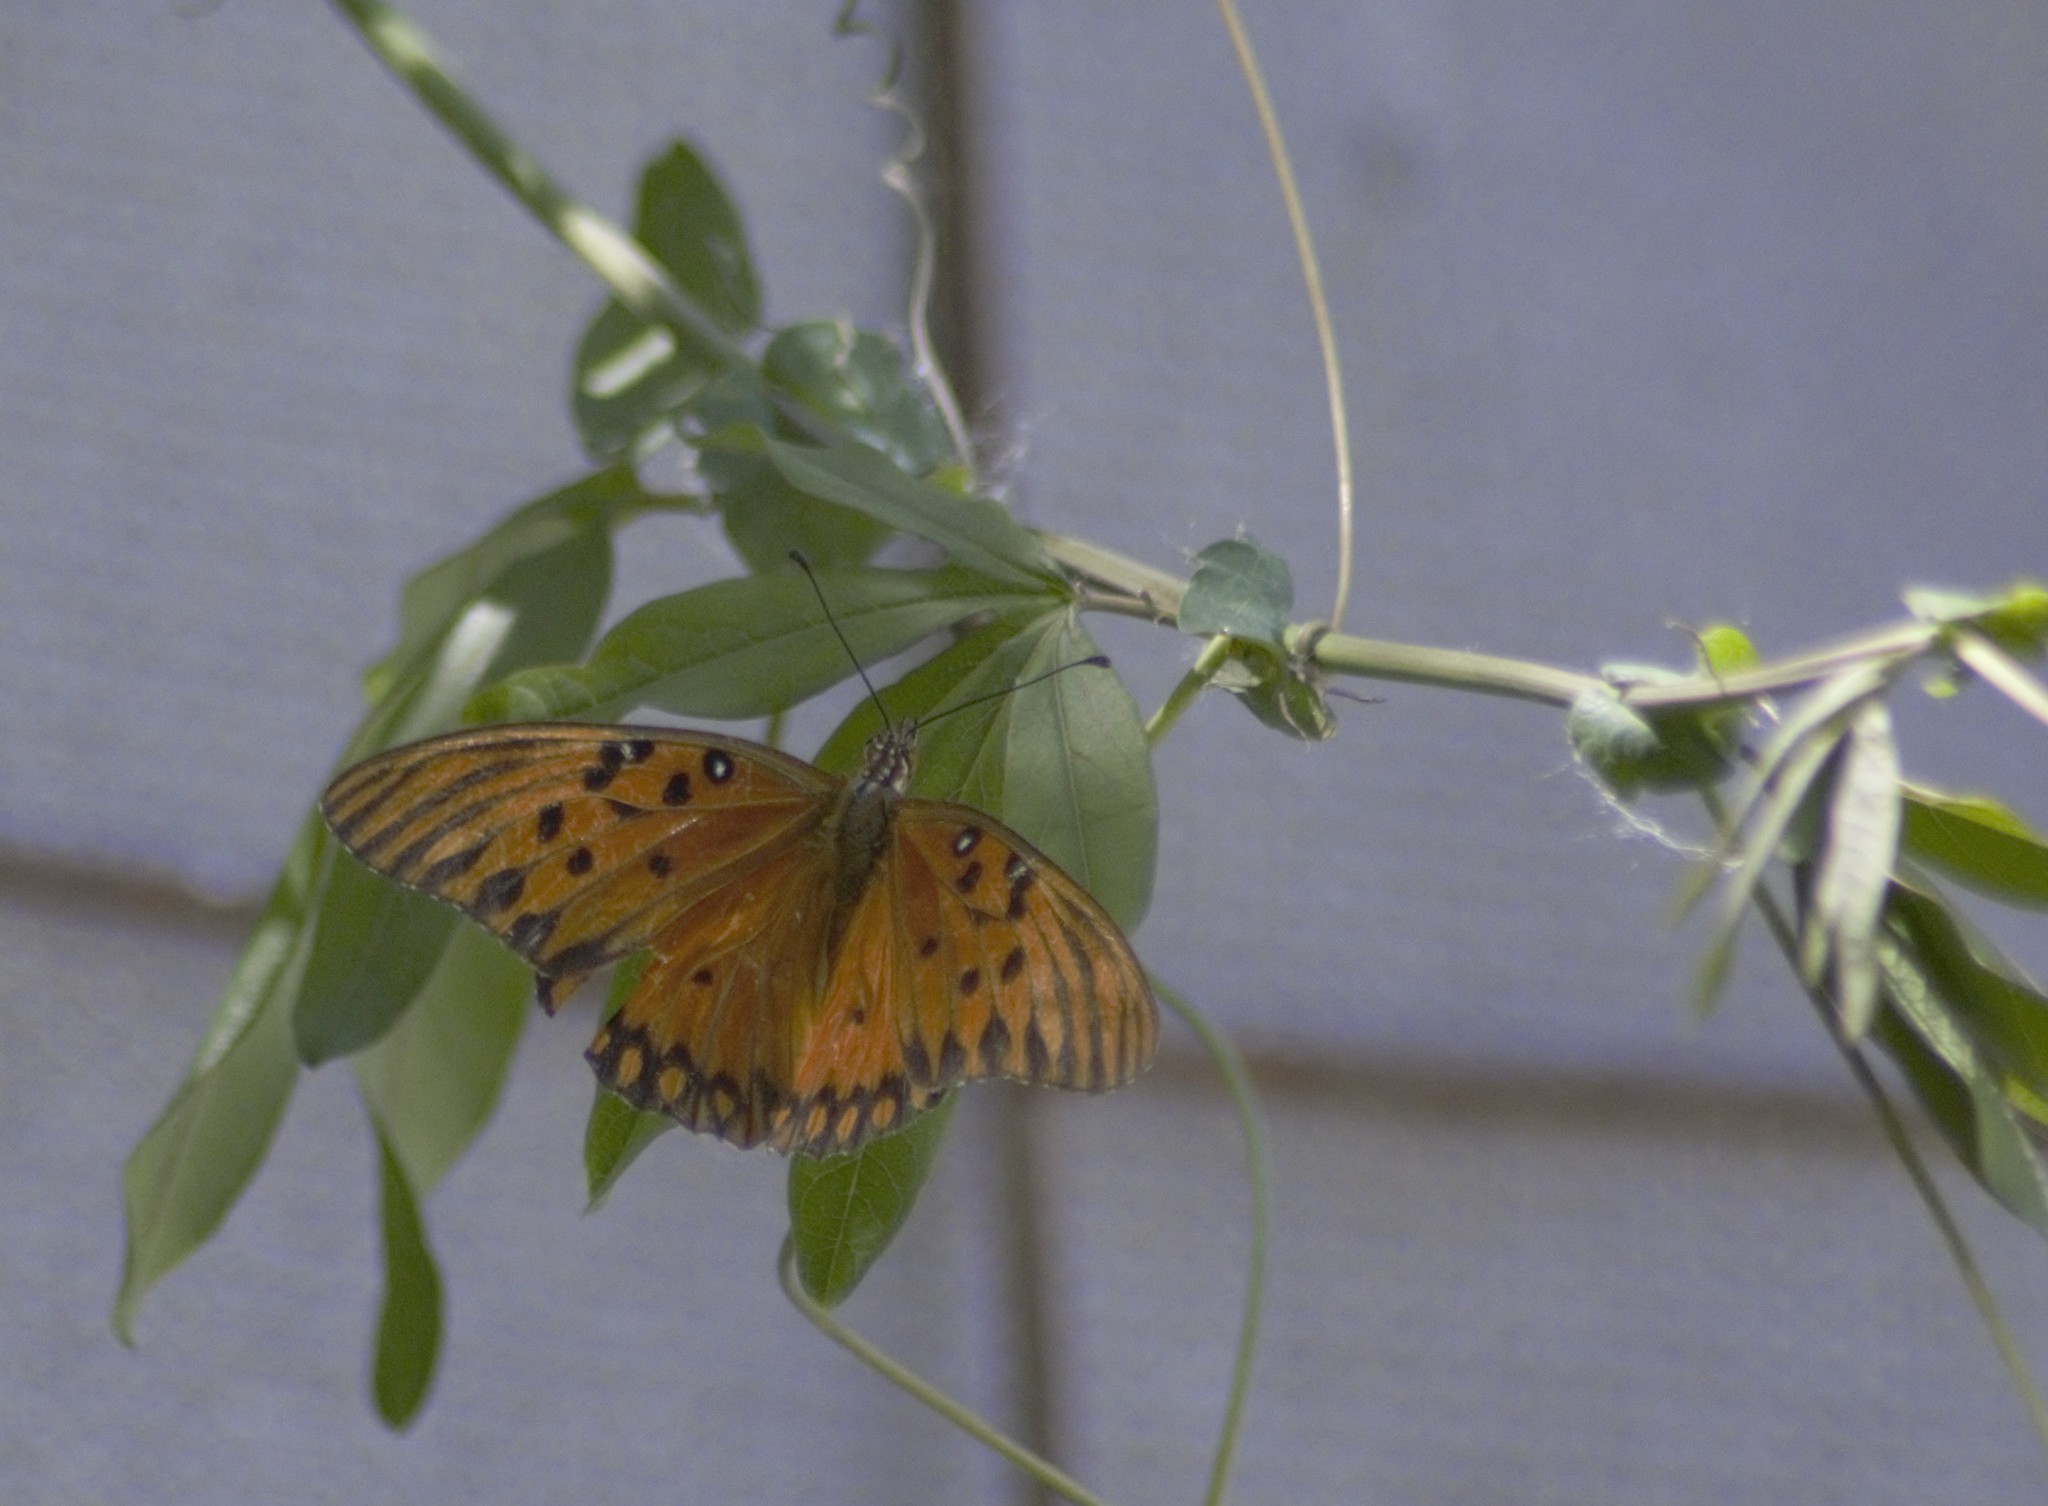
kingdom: Animalia
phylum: Arthropoda
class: Insecta
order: Lepidoptera
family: Nymphalidae
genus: Dione
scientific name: Dione vanillae
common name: Gulf fritillary
